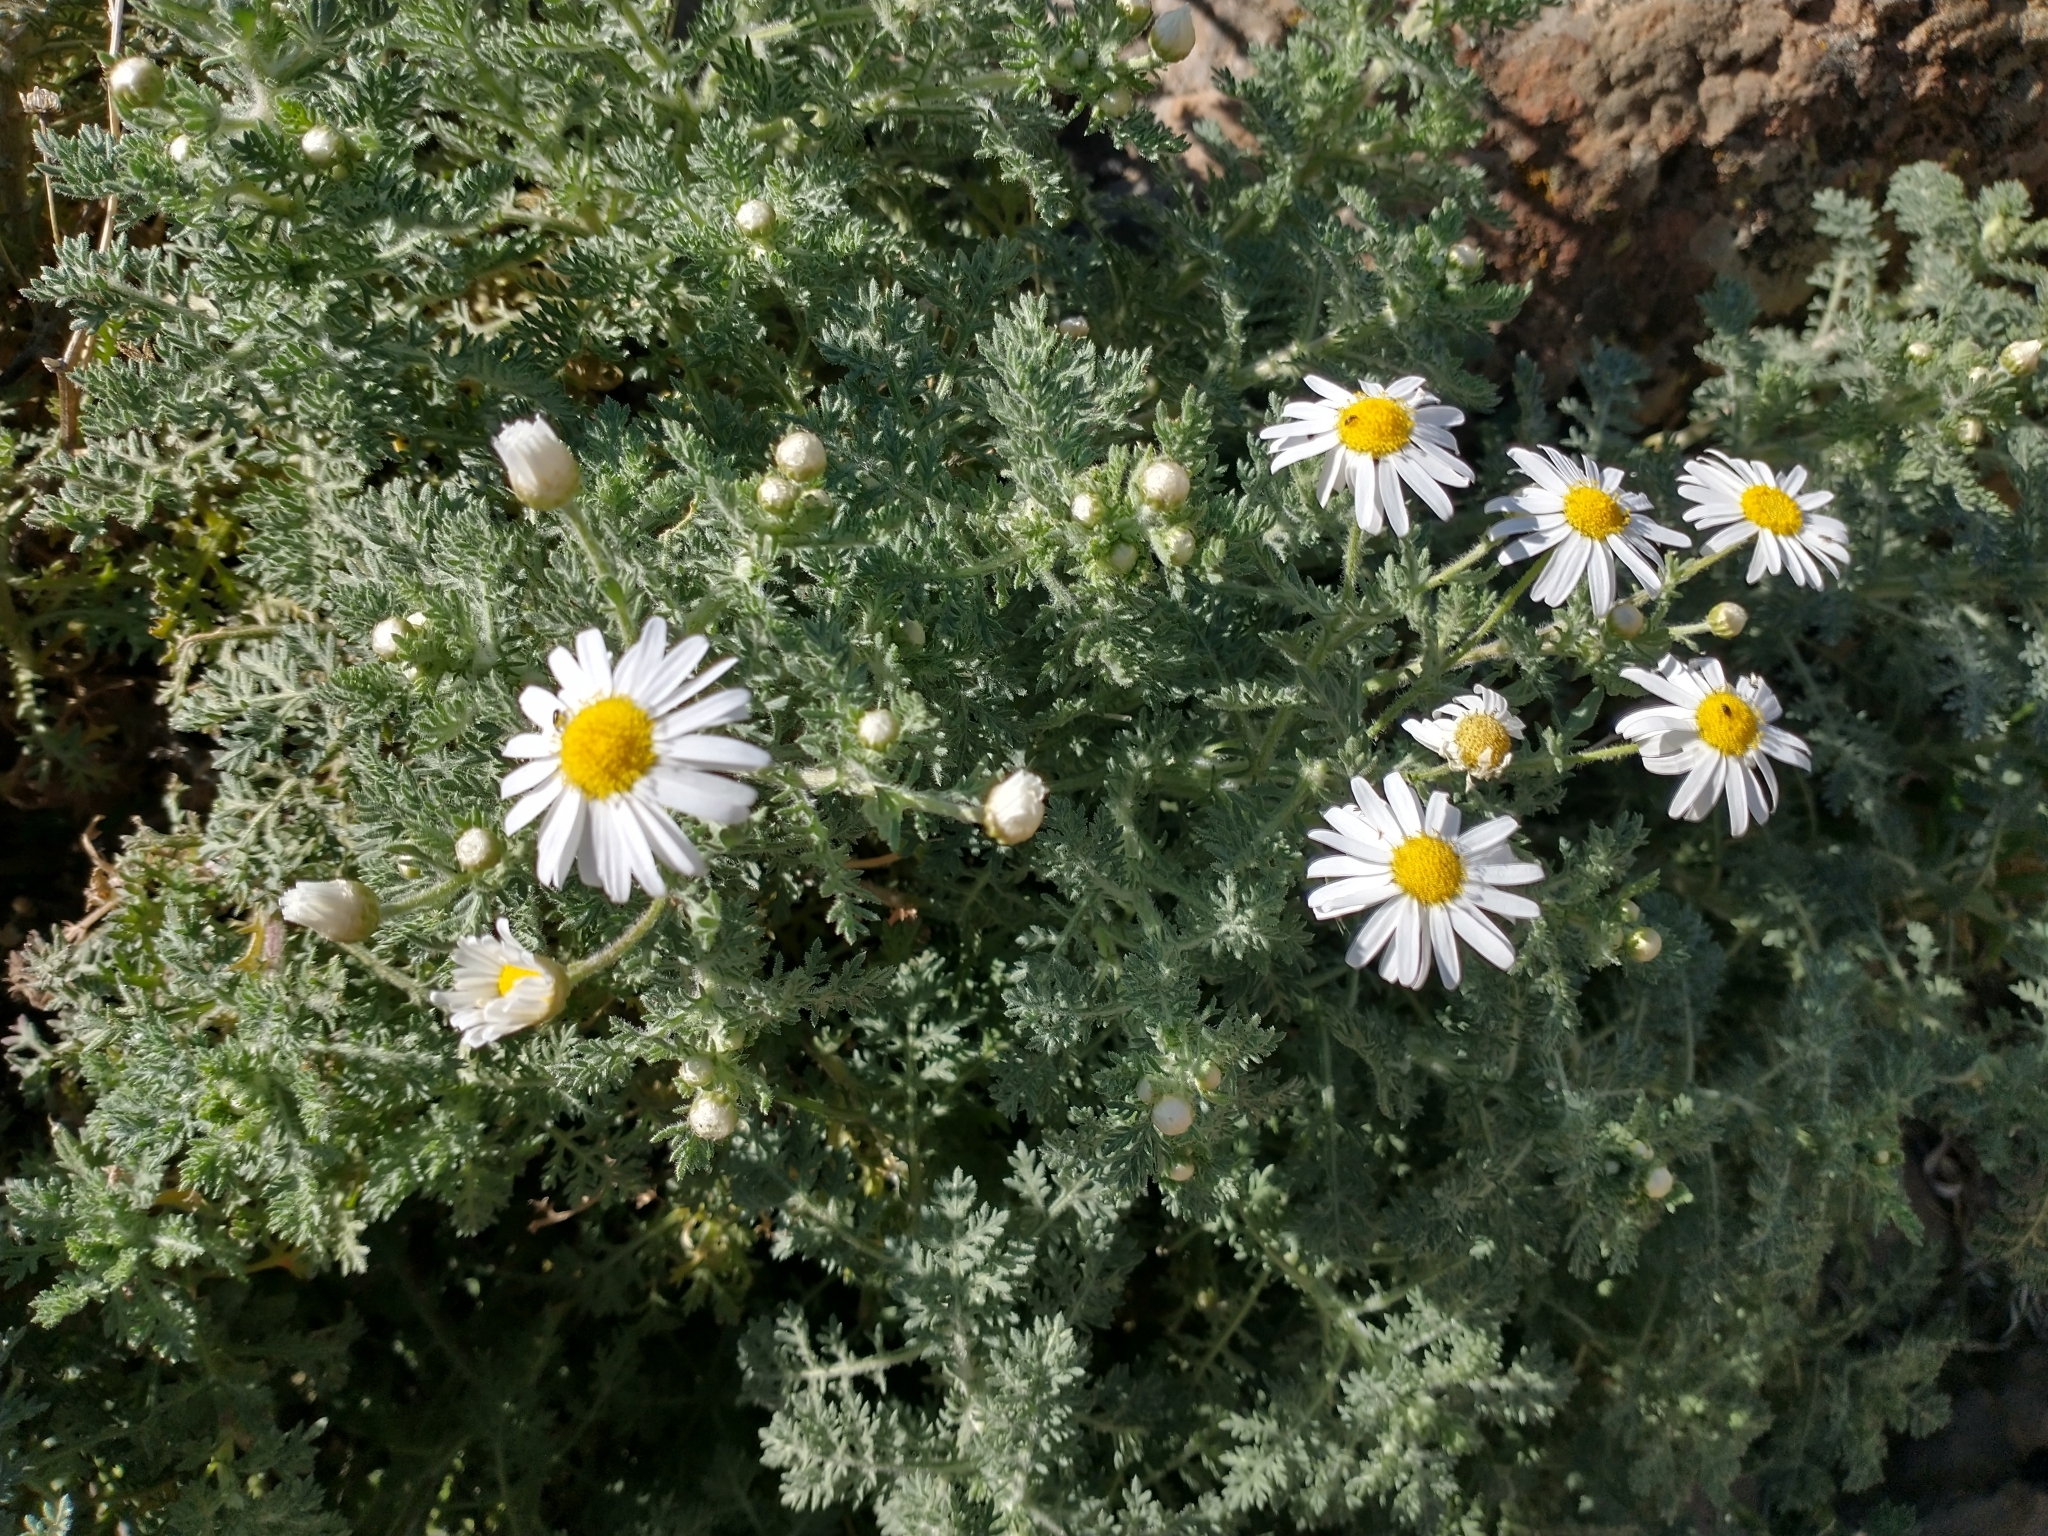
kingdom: Plantae
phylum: Tracheophyta
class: Magnoliopsida
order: Asterales
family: Asteraceae
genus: Argyranthemum
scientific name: Argyranthemum adauctum
